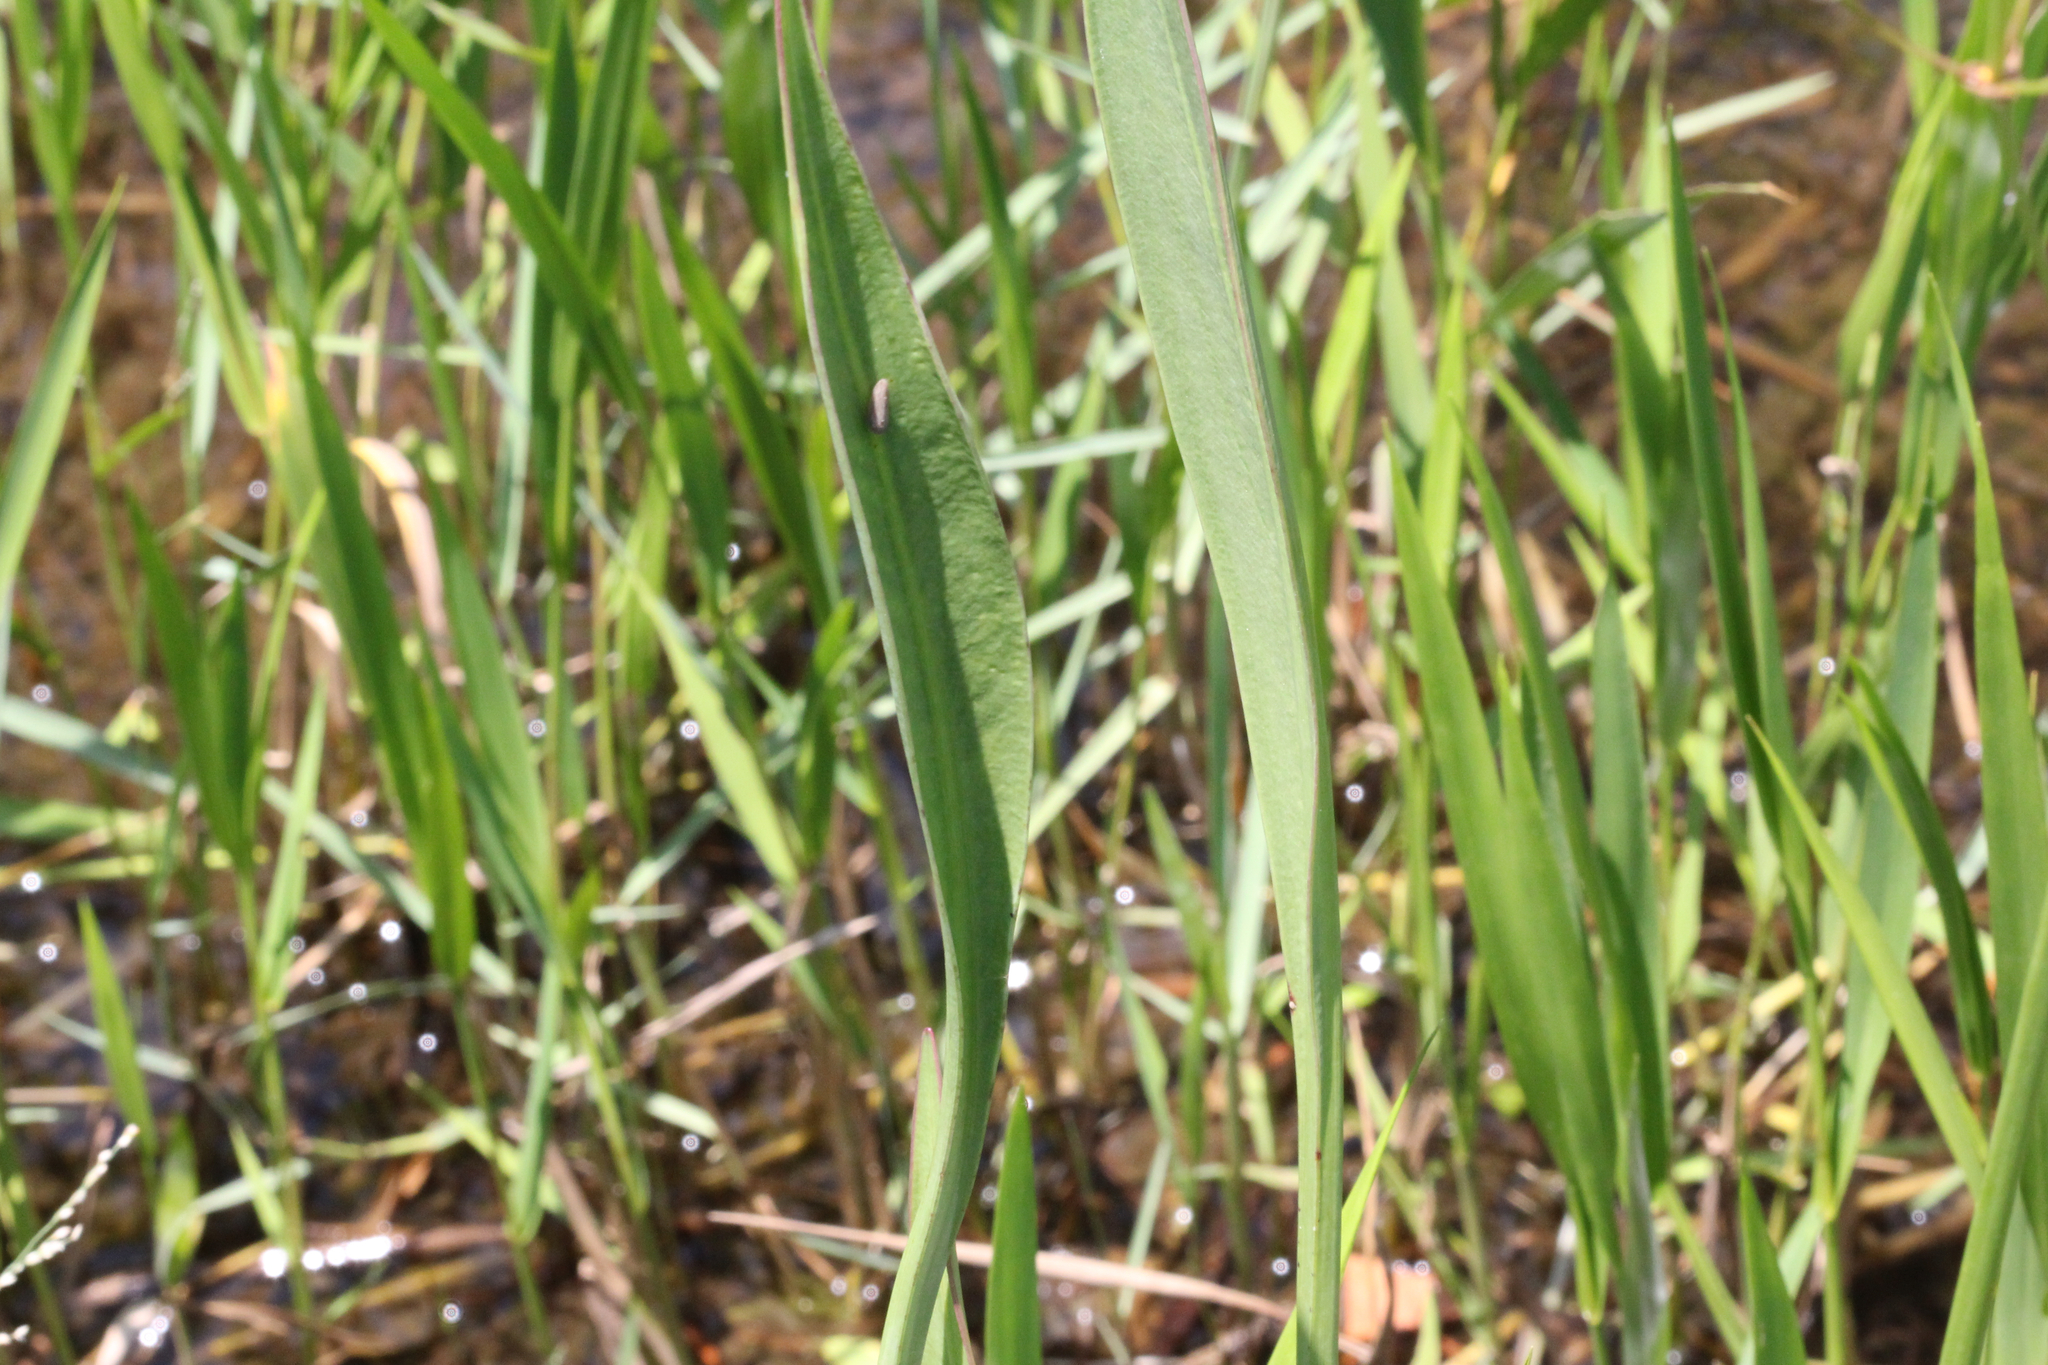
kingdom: Plantae
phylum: Tracheophyta
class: Liliopsida
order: Alismatales
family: Alismataceae
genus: Sagittaria
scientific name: Sagittaria lancifolia
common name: Lance-leaf arrowhead
